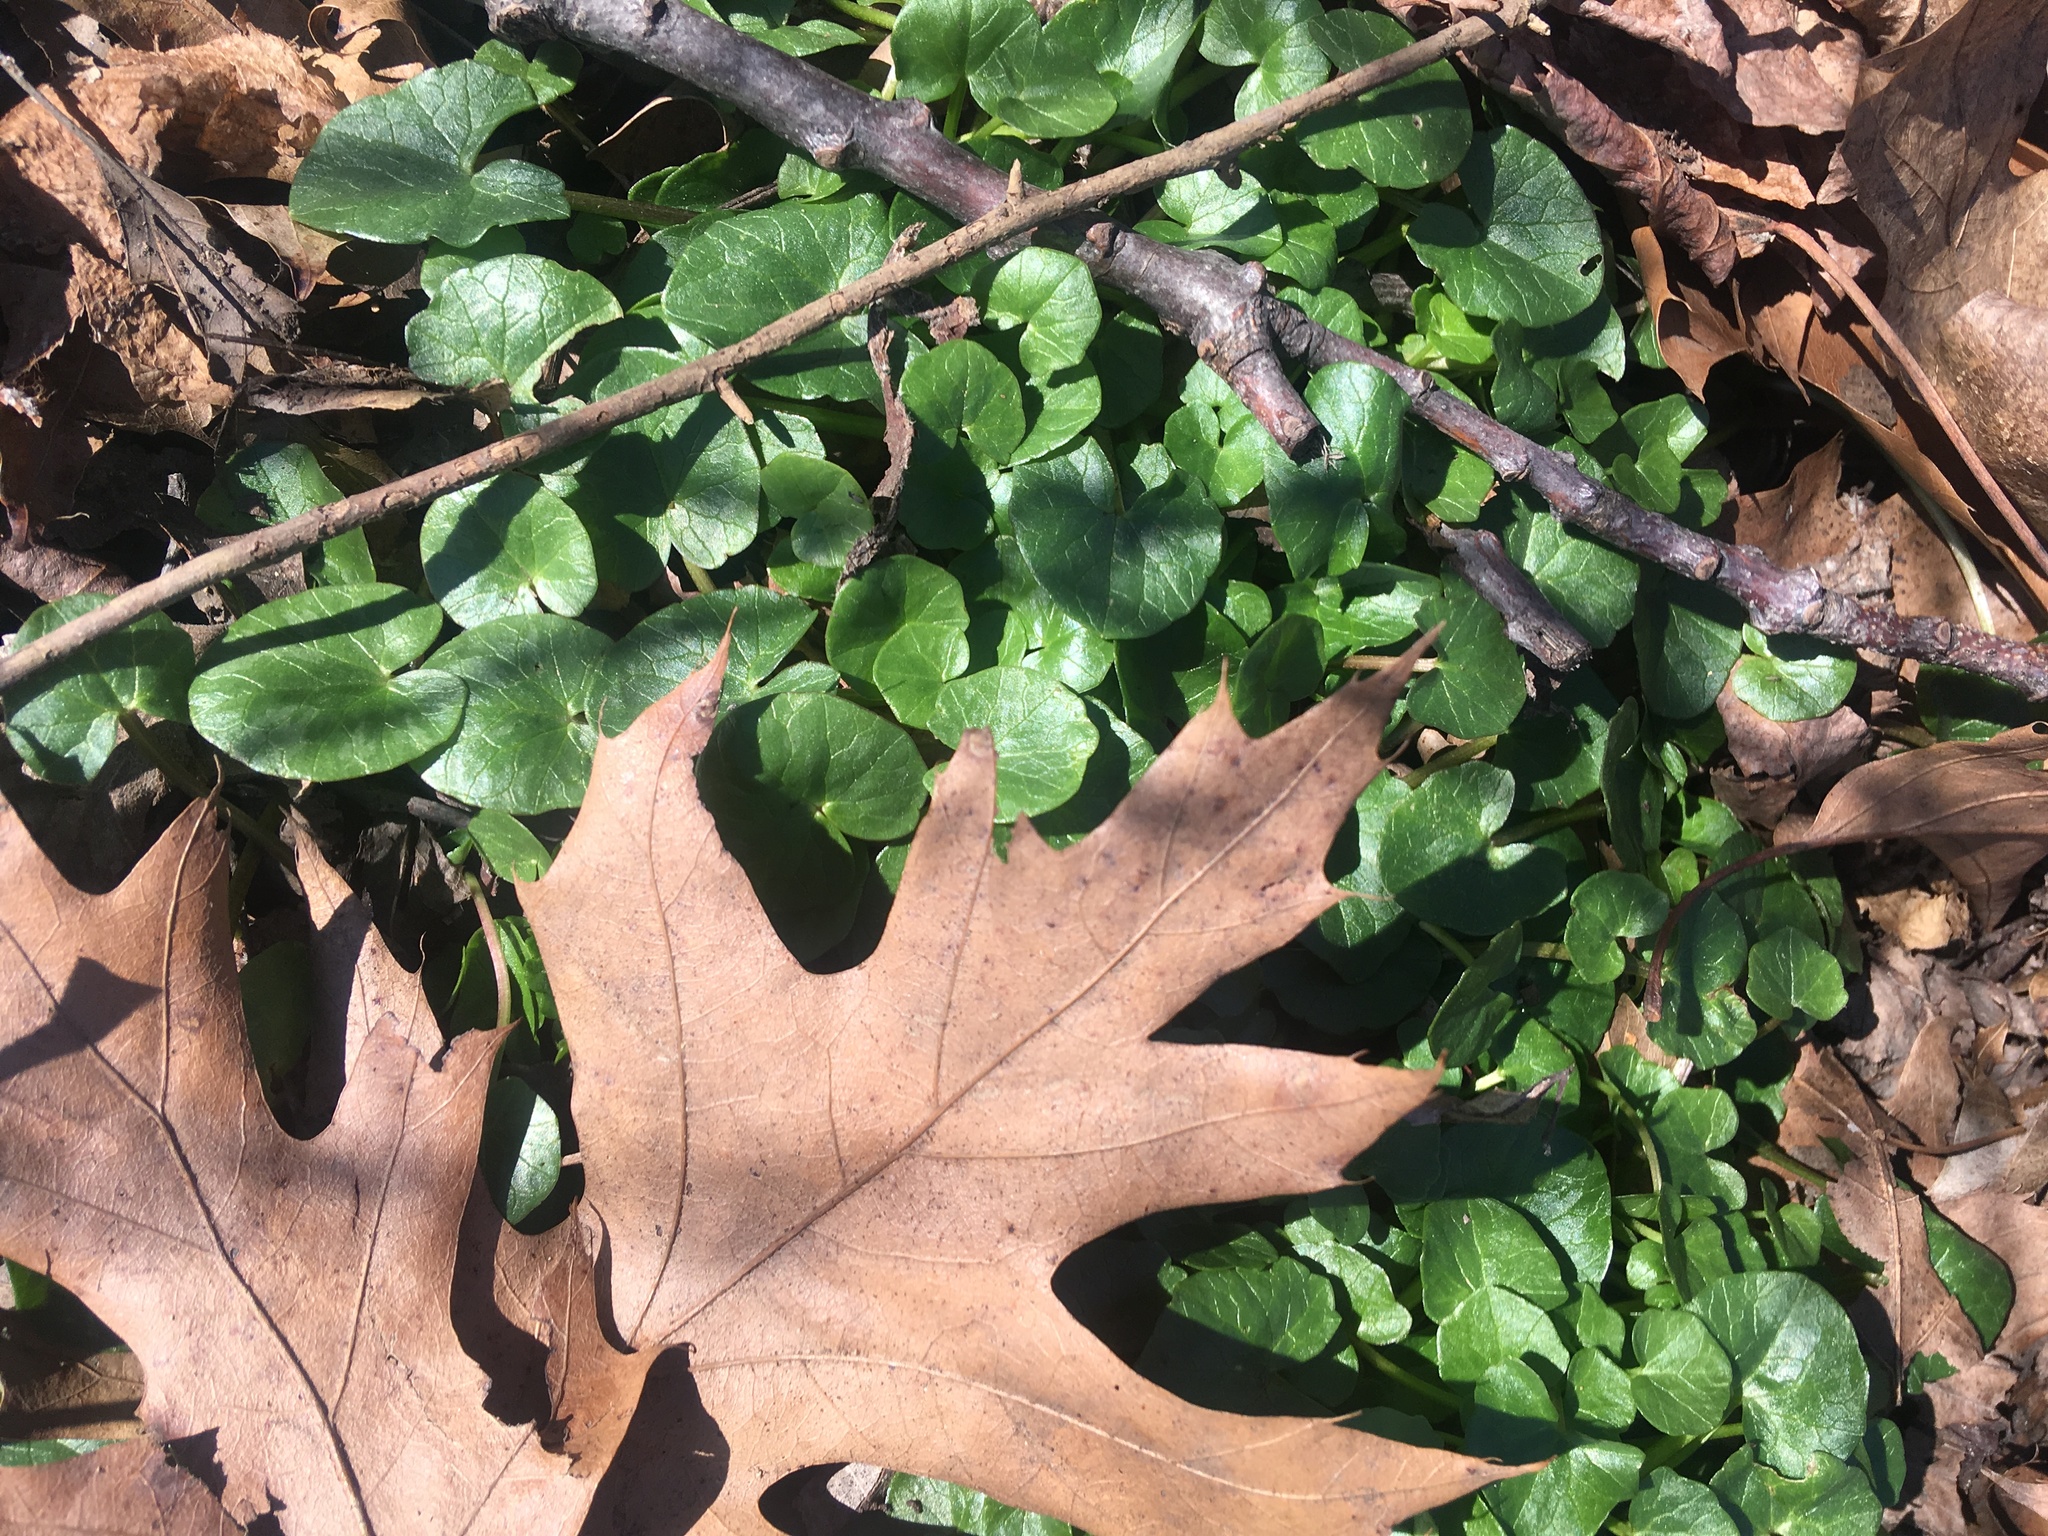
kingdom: Plantae
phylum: Tracheophyta
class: Magnoliopsida
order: Ranunculales
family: Ranunculaceae
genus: Ficaria
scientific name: Ficaria verna
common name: Lesser celandine
